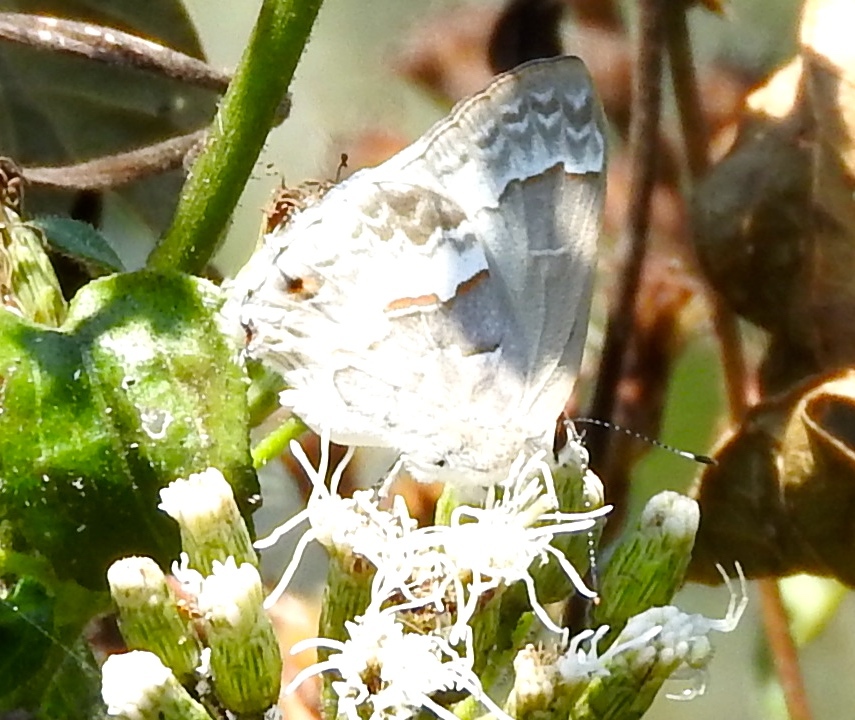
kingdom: Animalia
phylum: Arthropoda
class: Insecta
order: Lepidoptera
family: Lycaenidae
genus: Strymon
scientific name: Strymon albata
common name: White scrub-hairstreak
